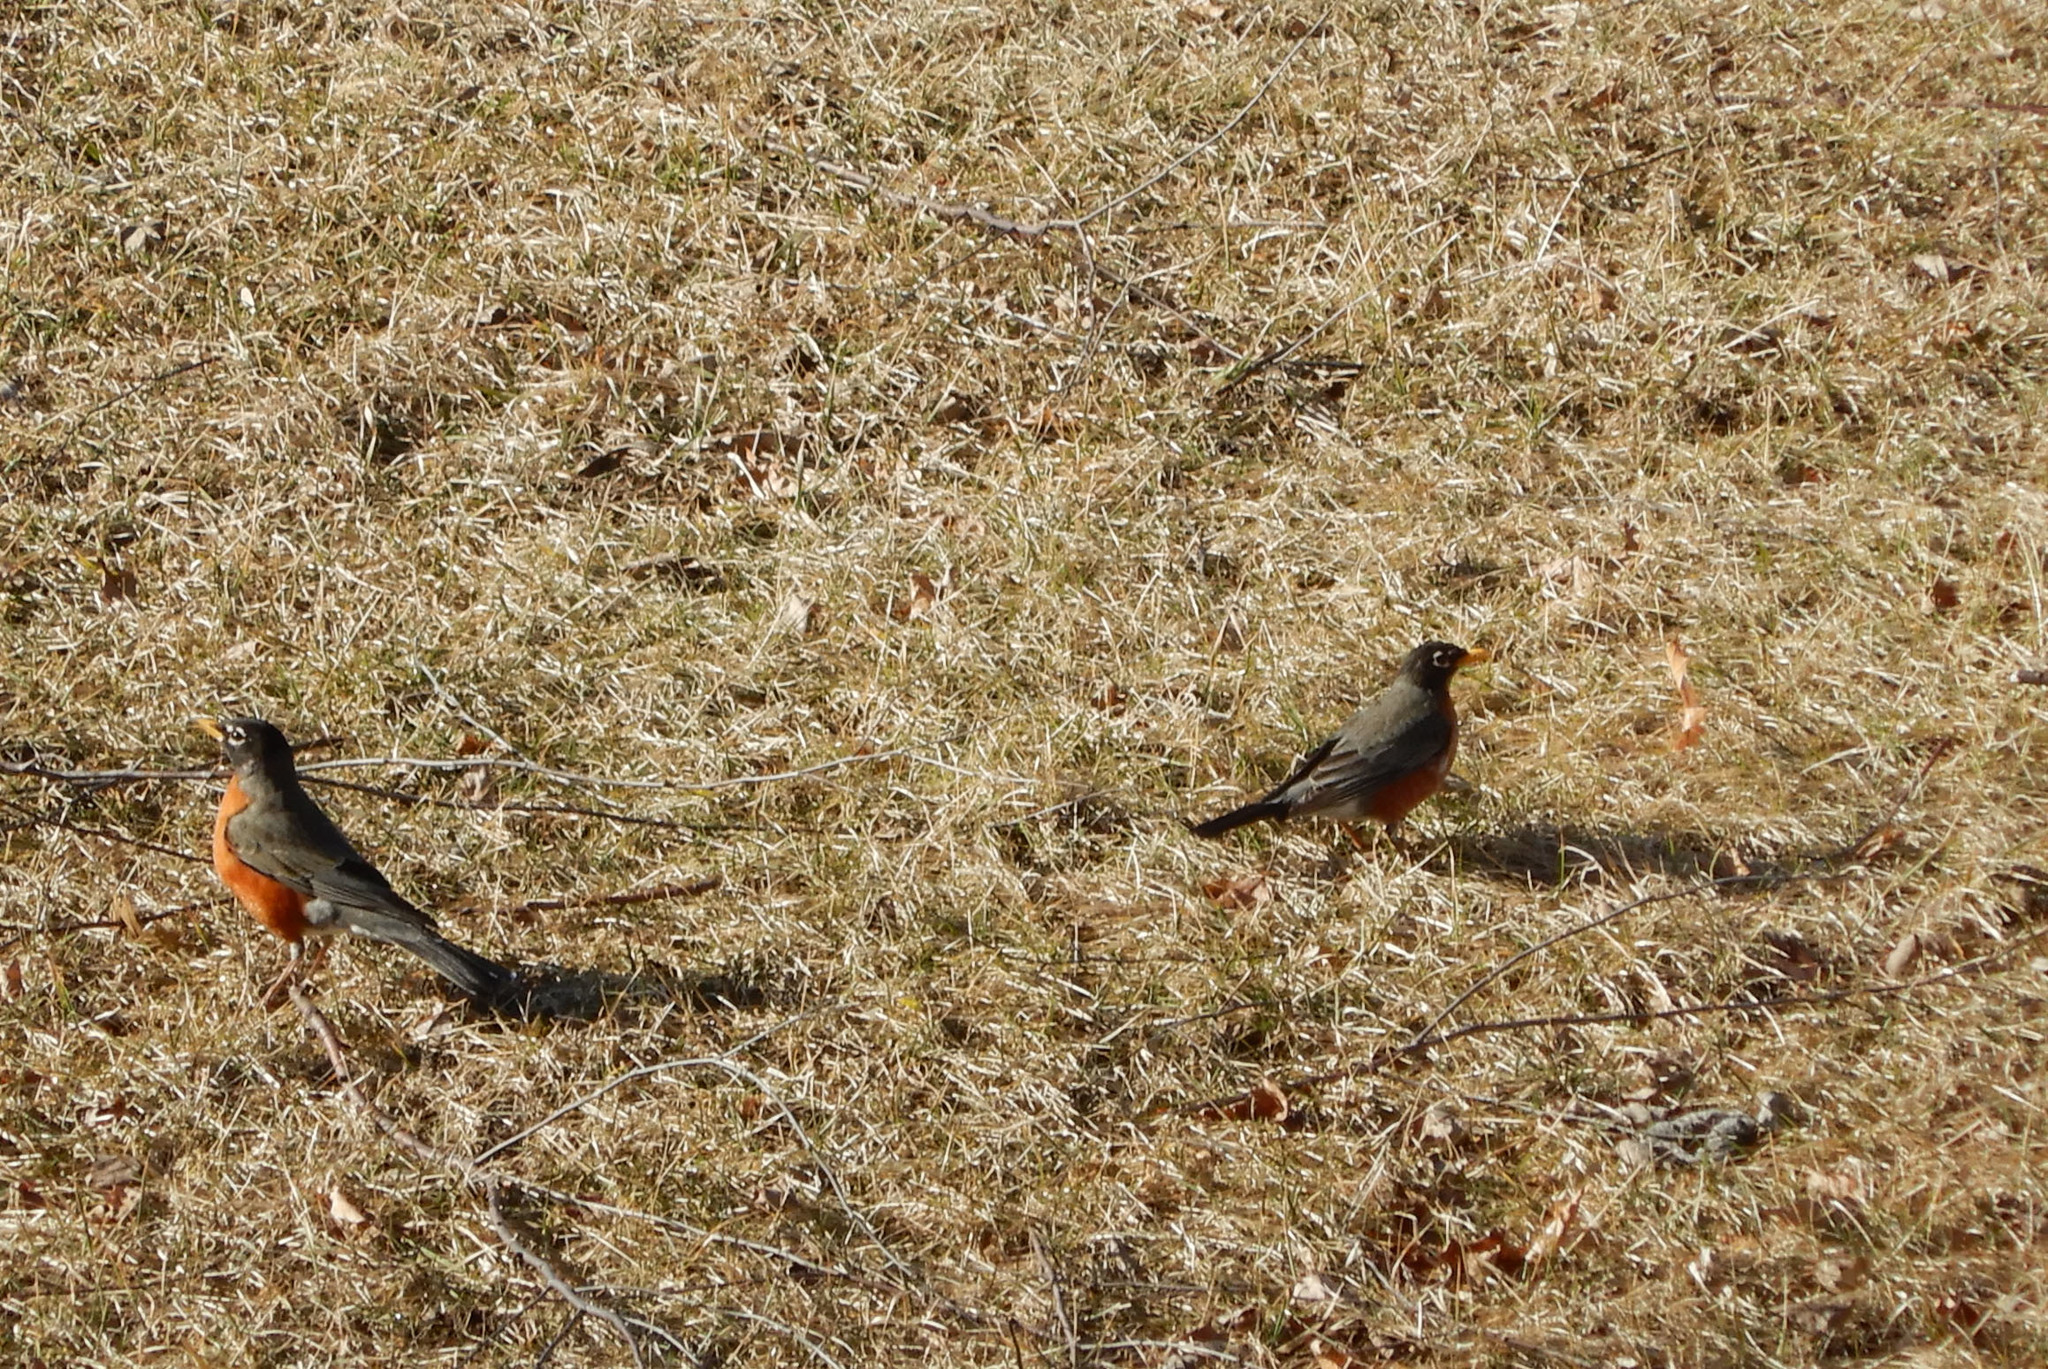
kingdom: Animalia
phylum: Chordata
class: Aves
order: Passeriformes
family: Turdidae
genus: Turdus
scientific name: Turdus migratorius
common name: American robin
